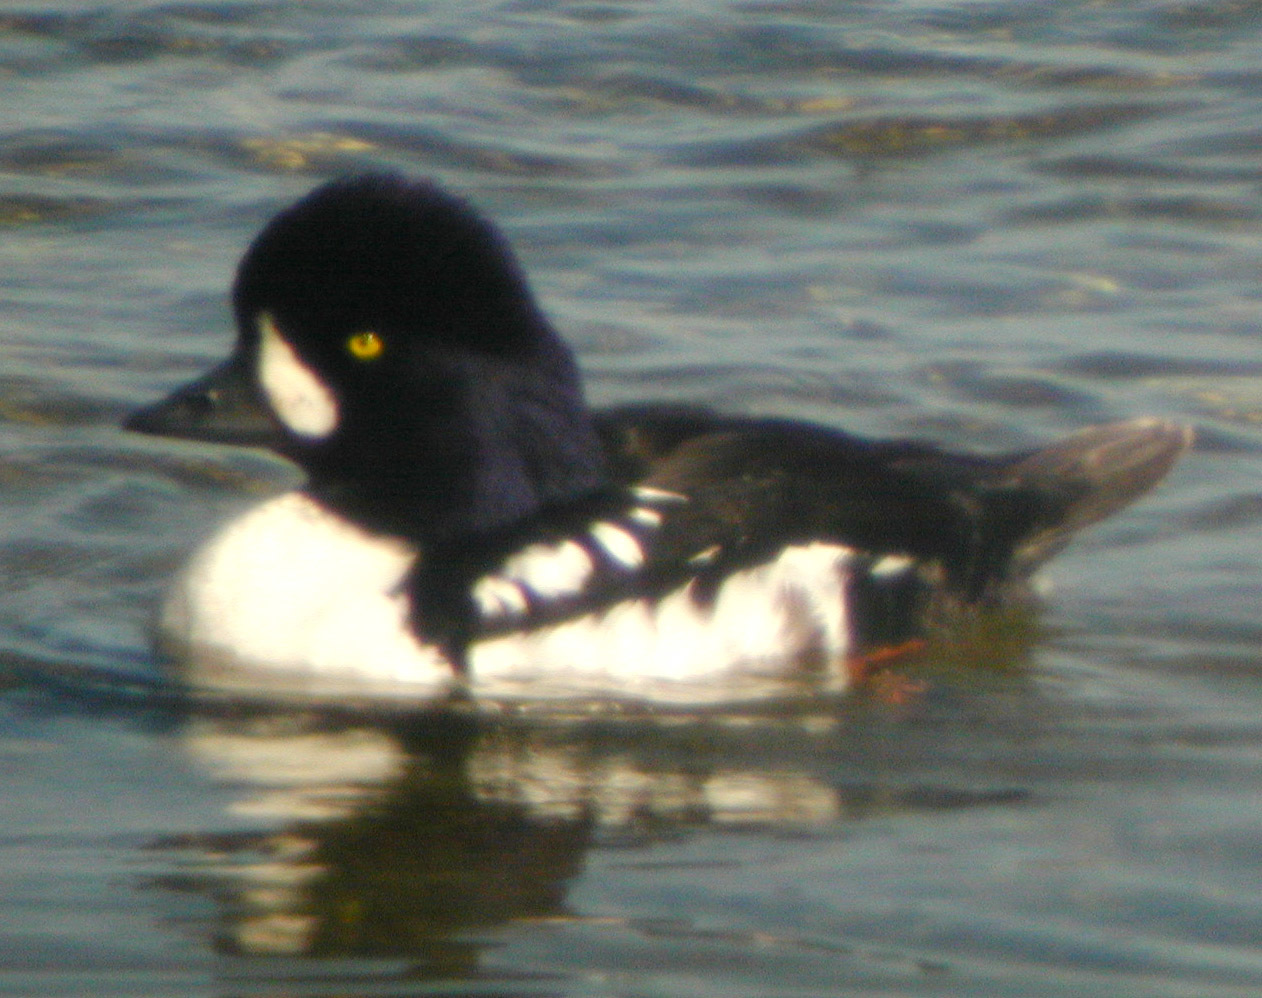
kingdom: Animalia
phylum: Chordata
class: Aves
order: Anseriformes
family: Anatidae
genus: Bucephala
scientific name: Bucephala islandica
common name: Barrow's goldeneye
